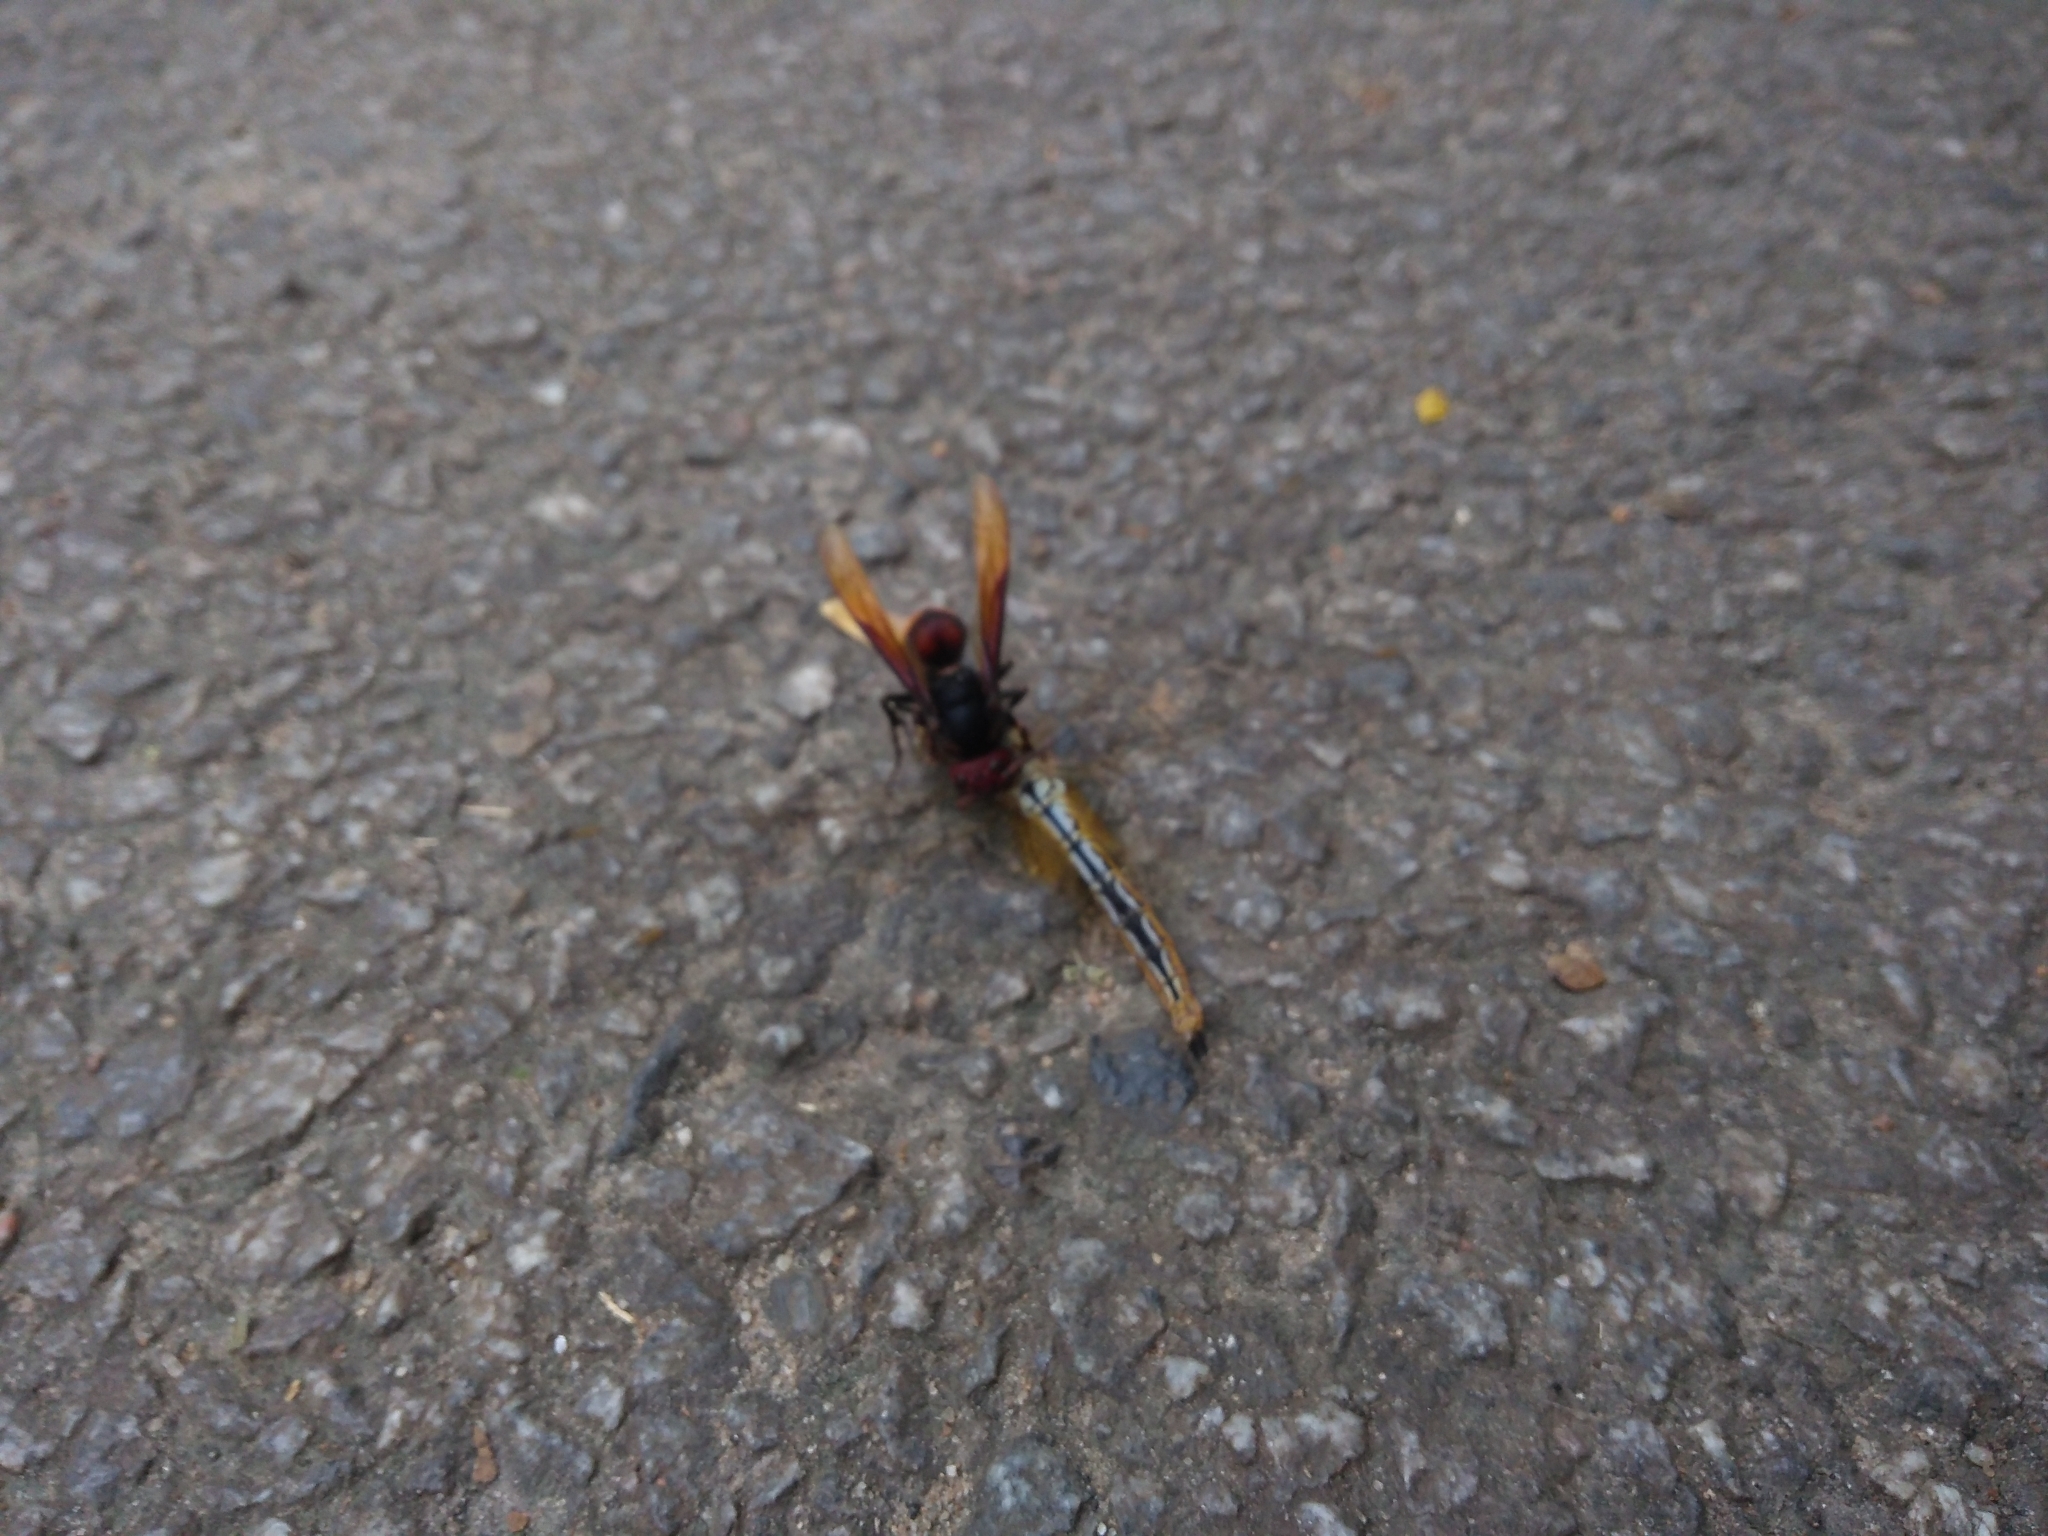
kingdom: Animalia
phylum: Arthropoda
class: Insecta
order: Odonata
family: Libellulidae
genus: Pantala
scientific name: Pantala flavescens
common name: Wandering glider
